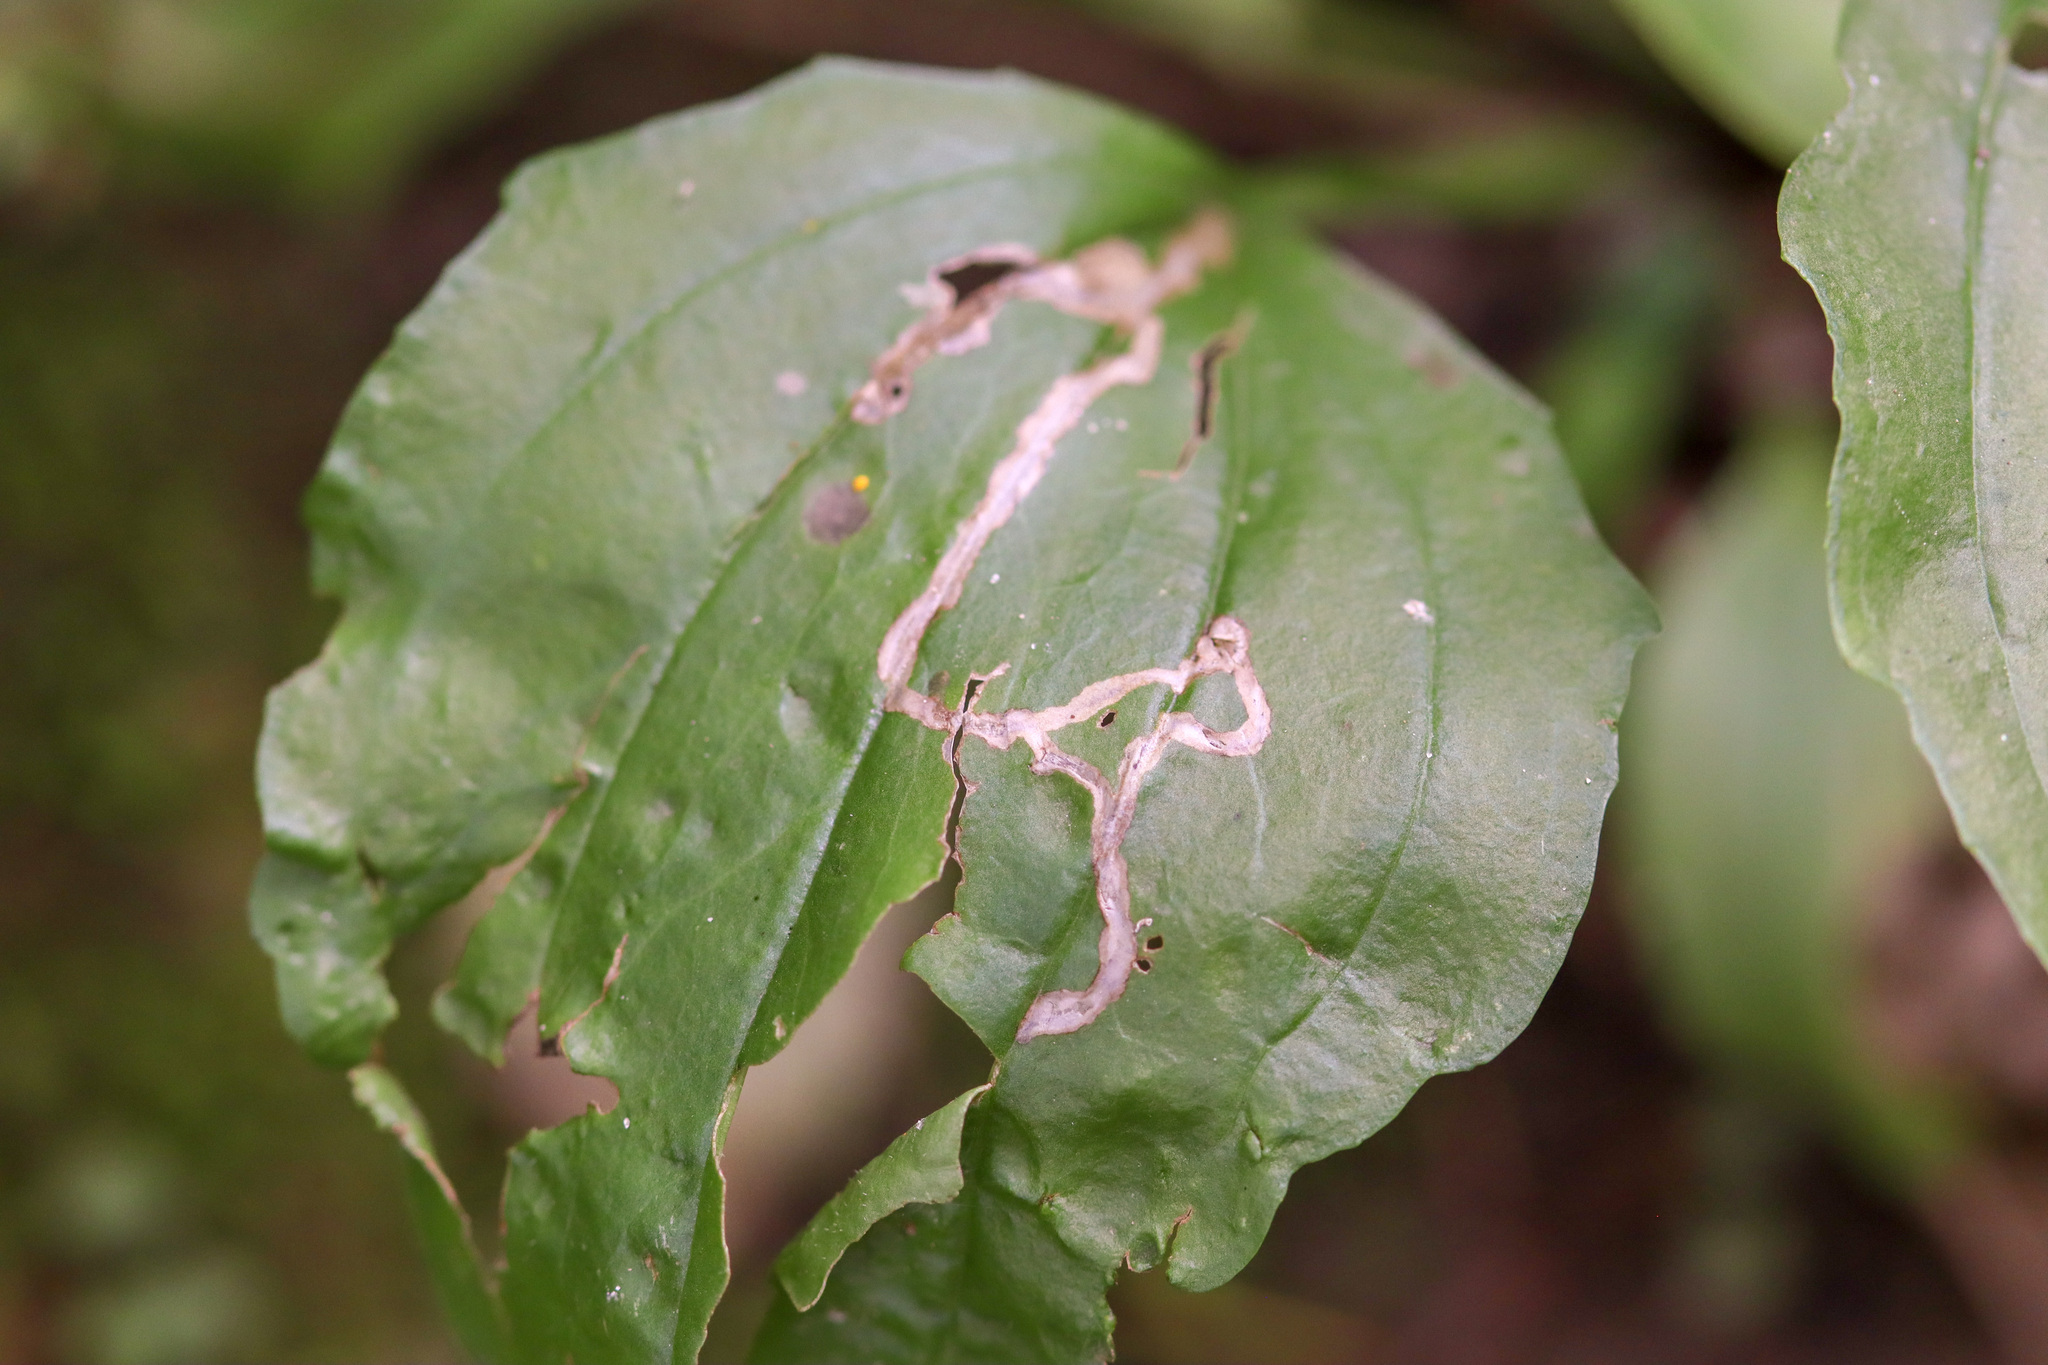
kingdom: Animalia
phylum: Arthropoda
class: Insecta
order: Coleoptera
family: Chrysomelidae
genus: Dibolia
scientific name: Dibolia borealis
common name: Northern plantain flea beetle
